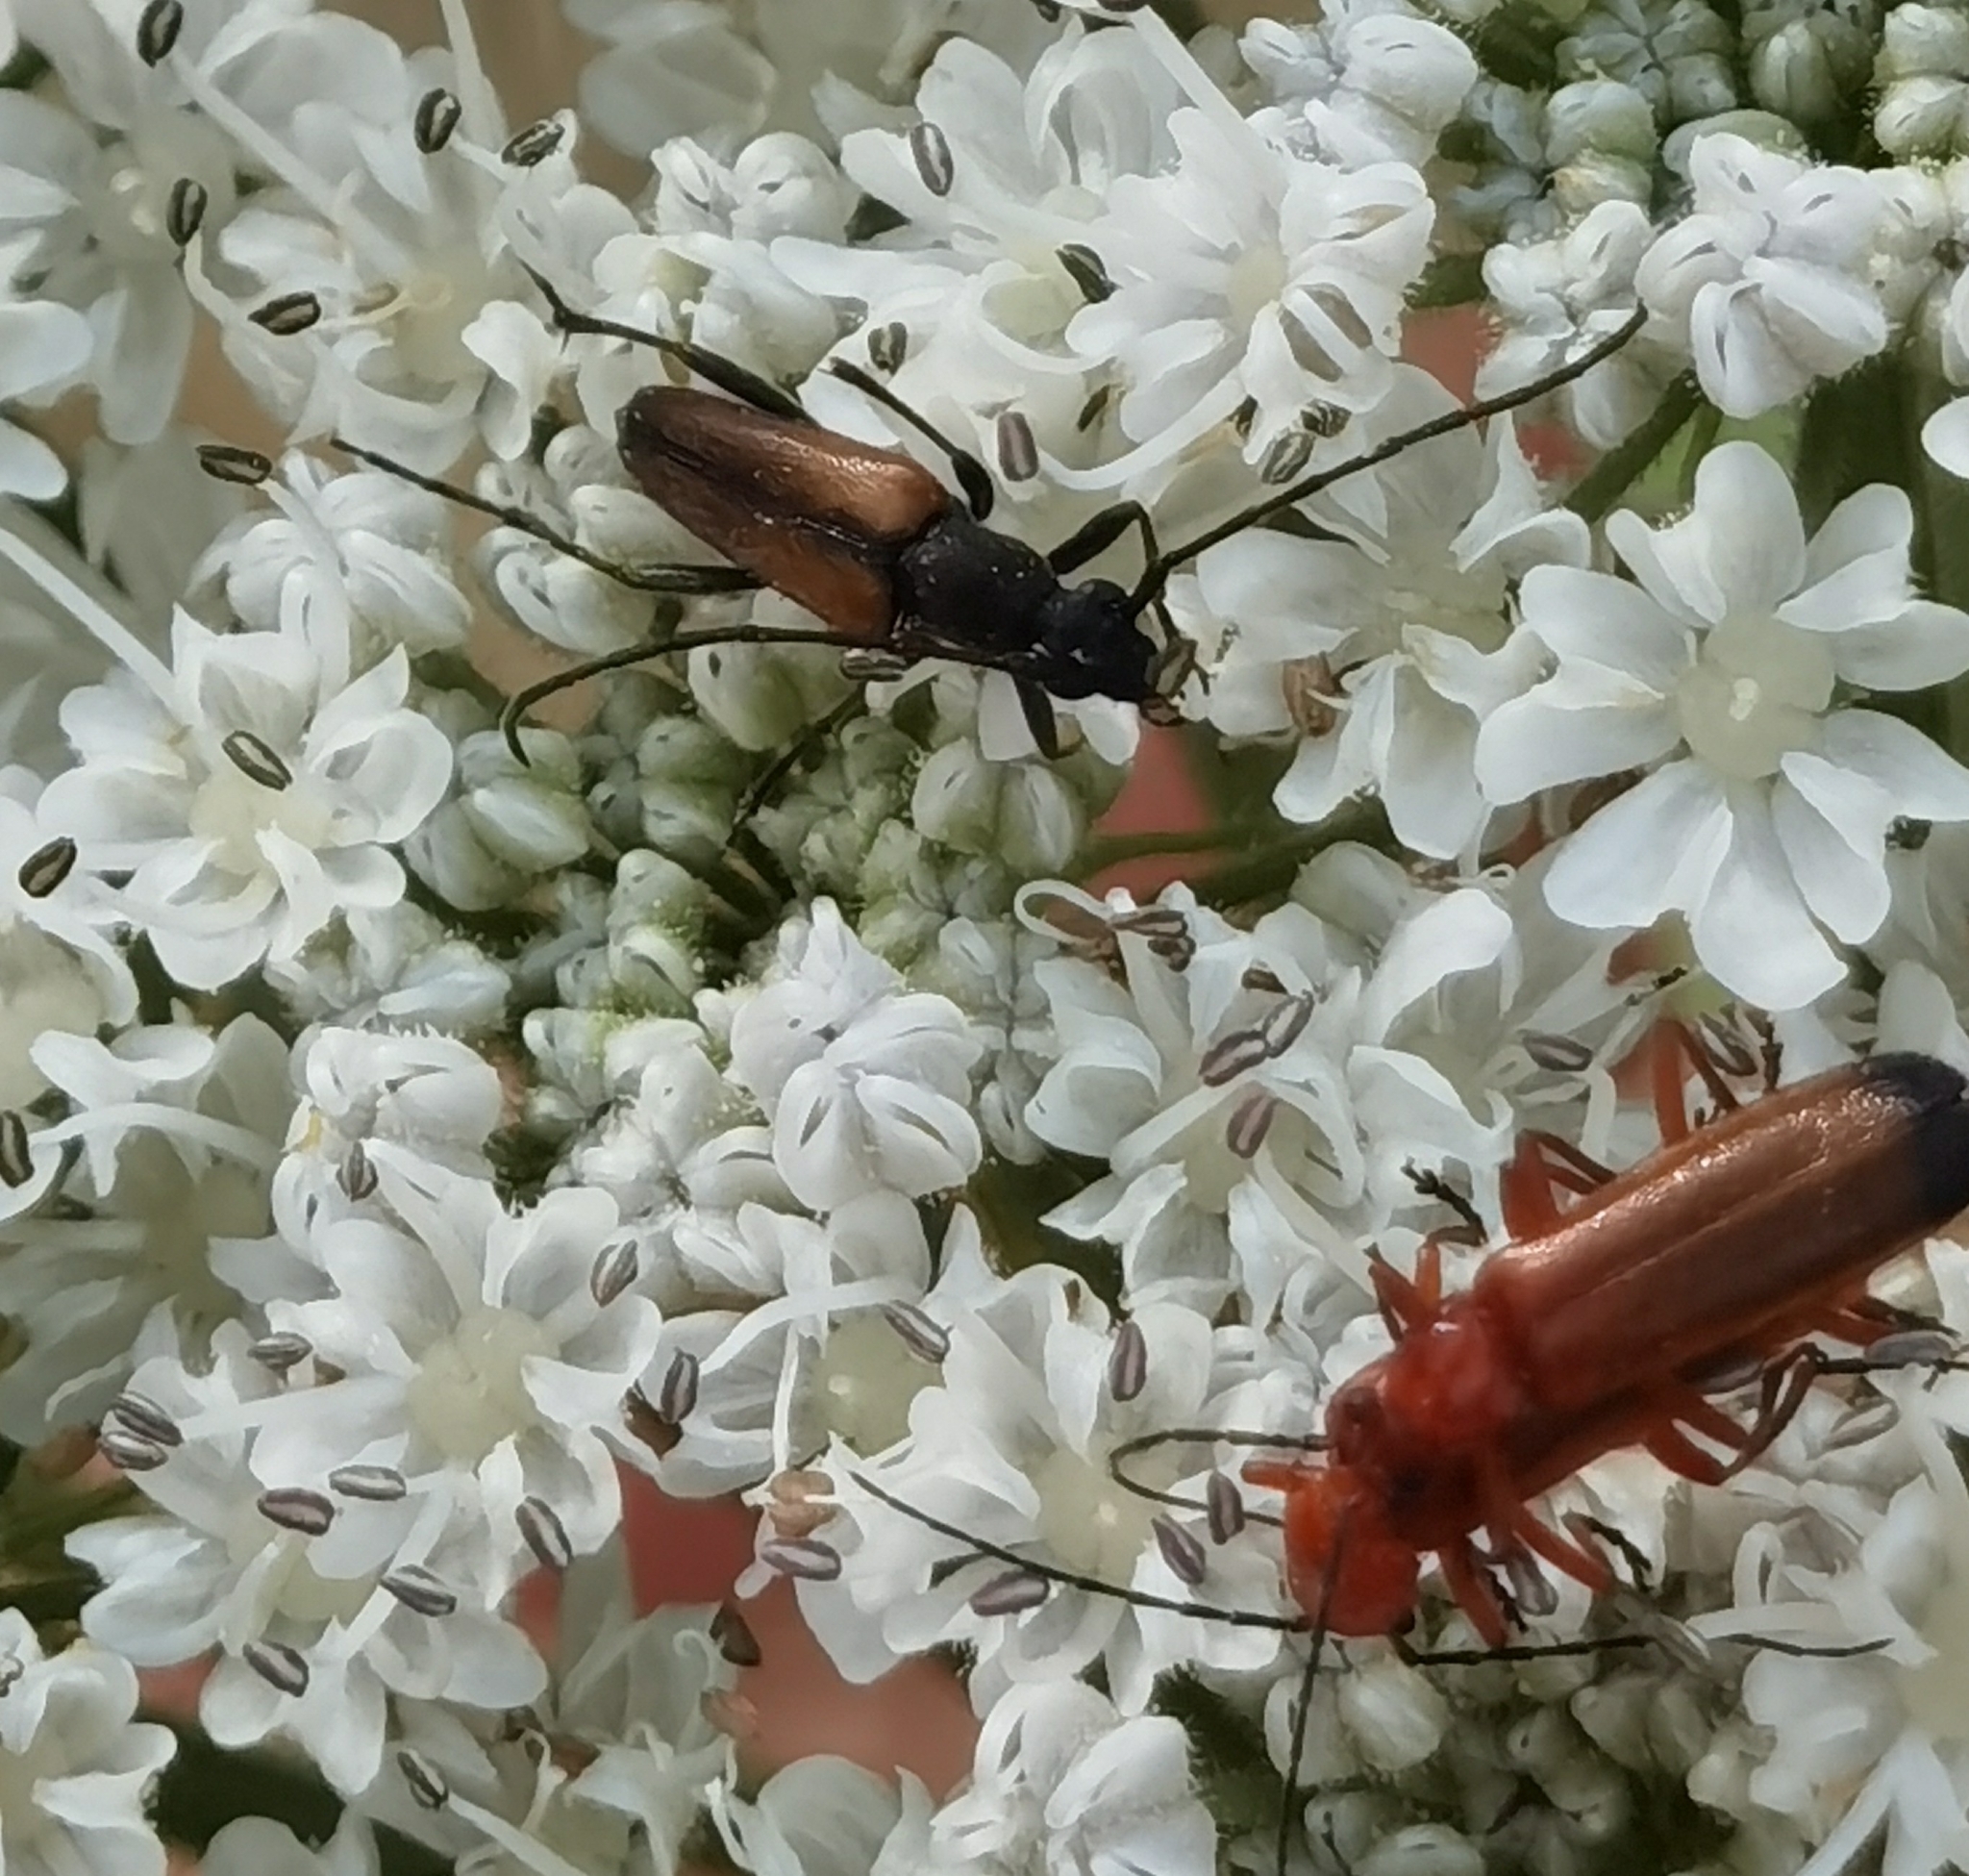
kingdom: Animalia
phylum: Arthropoda
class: Insecta
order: Coleoptera
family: Cerambycidae
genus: Stenurella
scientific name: Stenurella melanura
